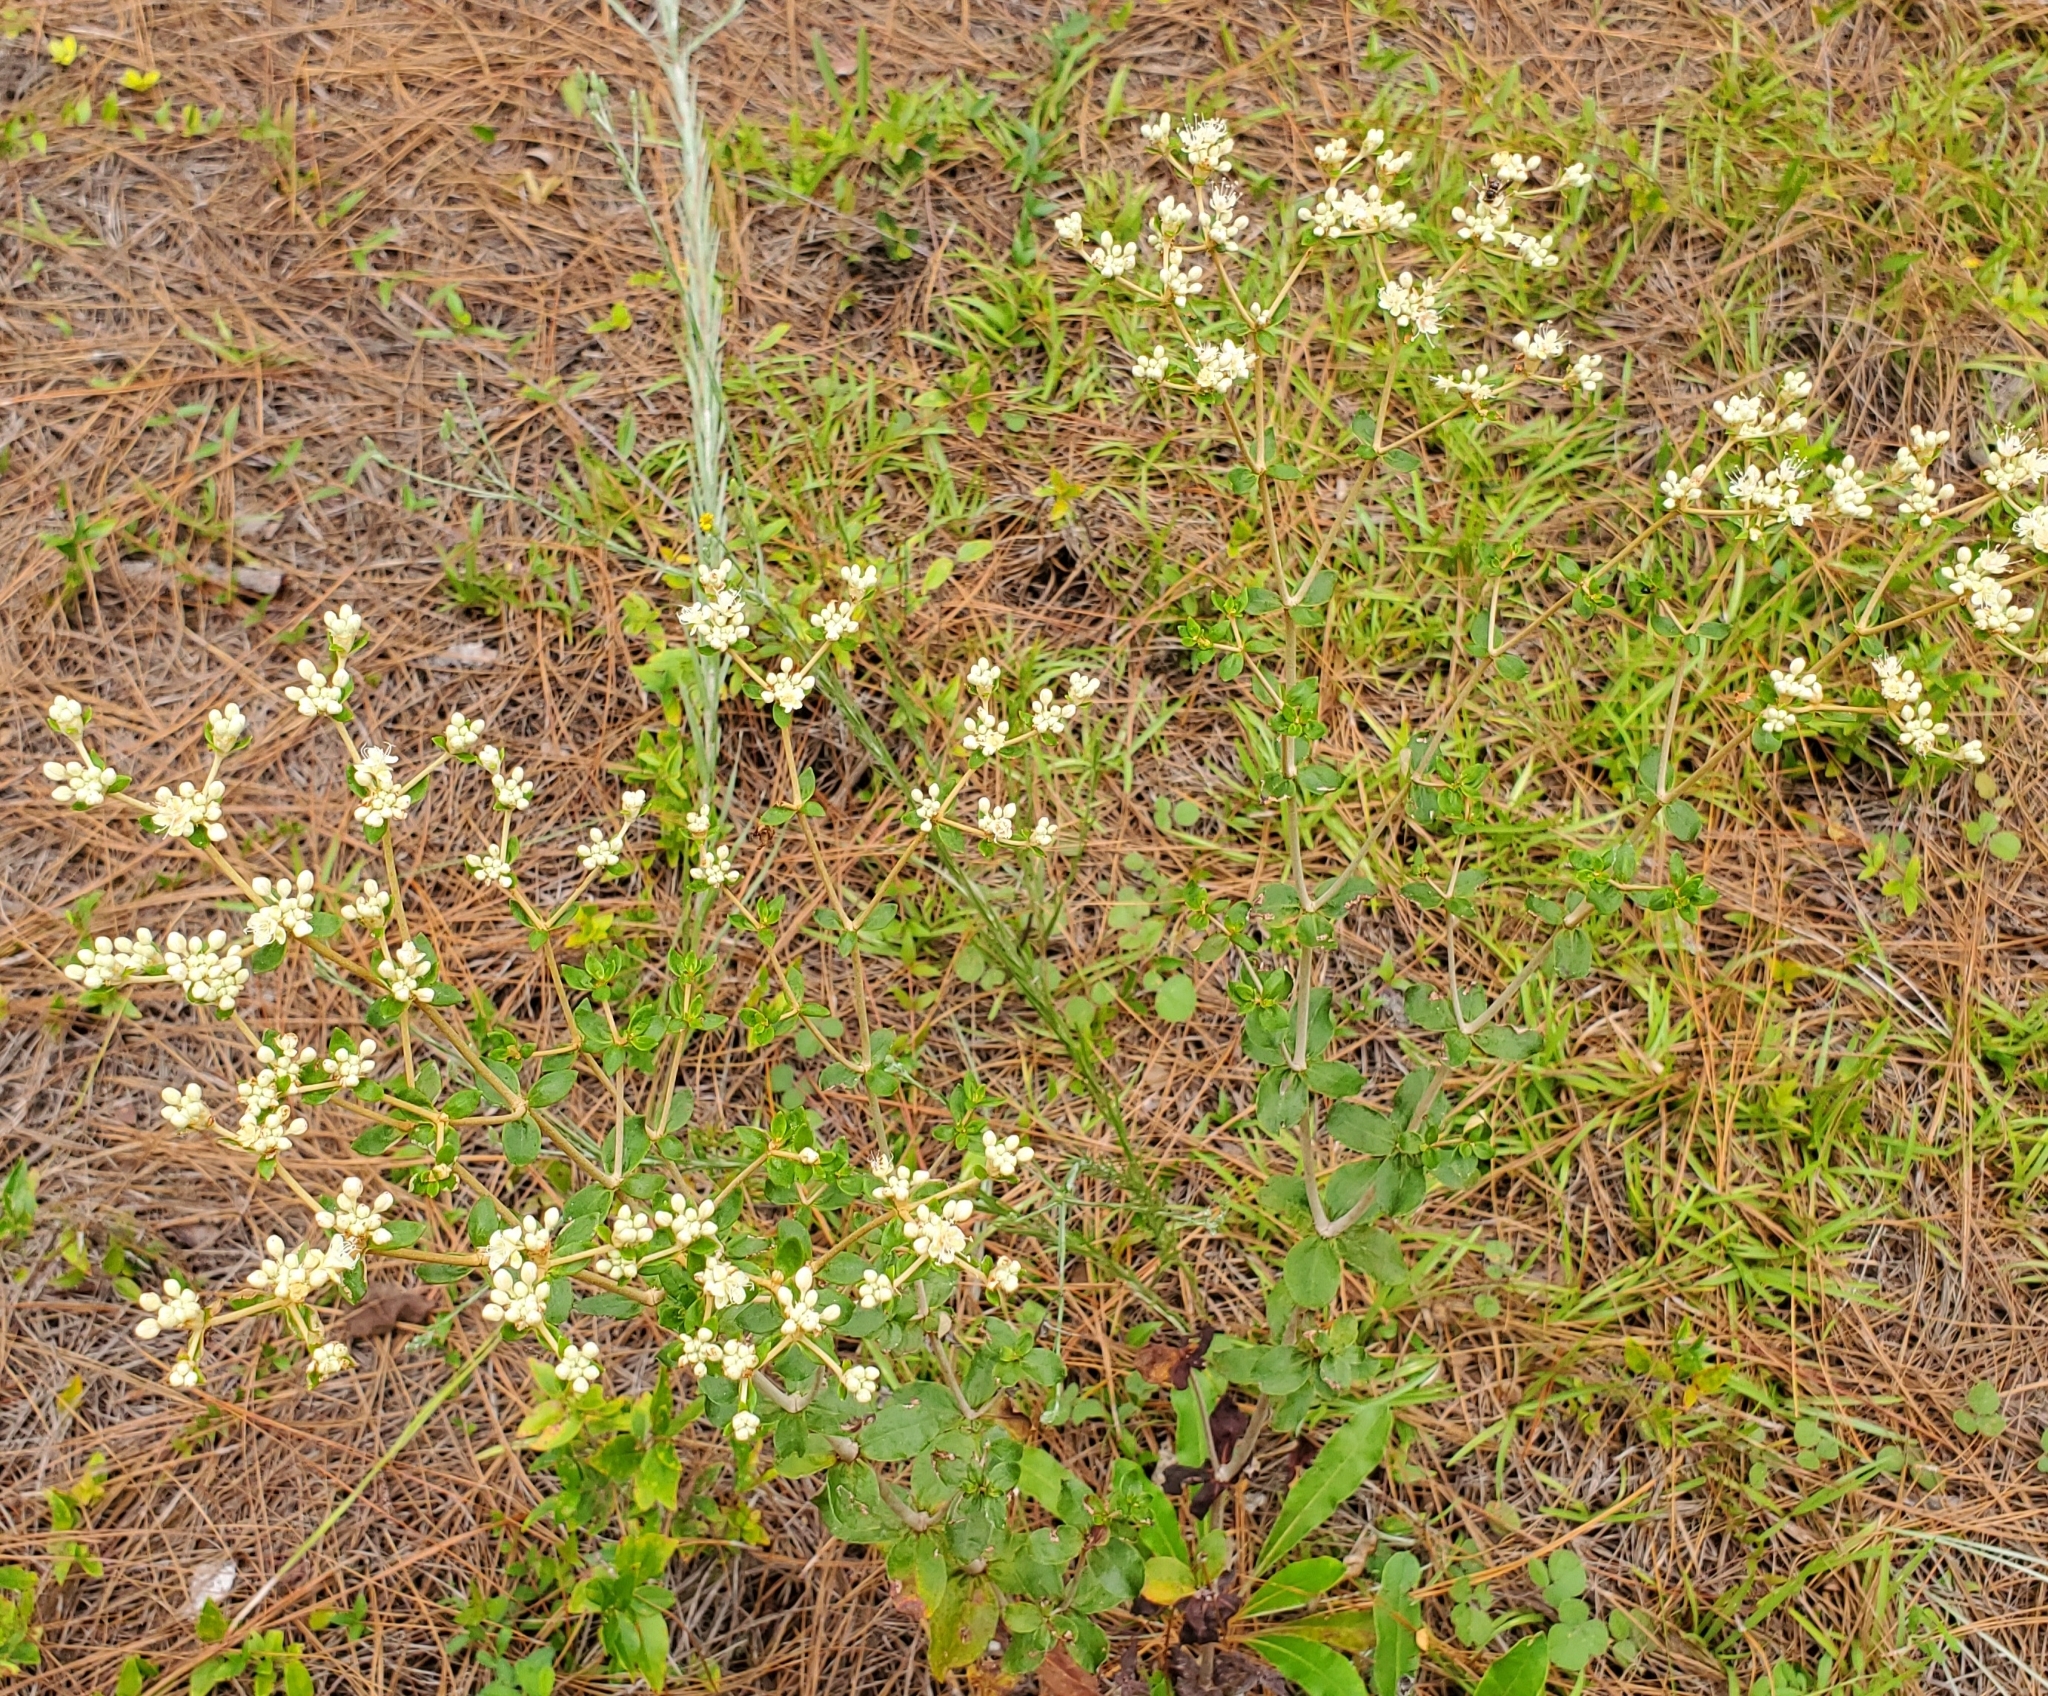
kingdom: Plantae
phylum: Tracheophyta
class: Magnoliopsida
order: Caryophyllales
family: Polygonaceae
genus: Eriogonum
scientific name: Eriogonum tomentosum
